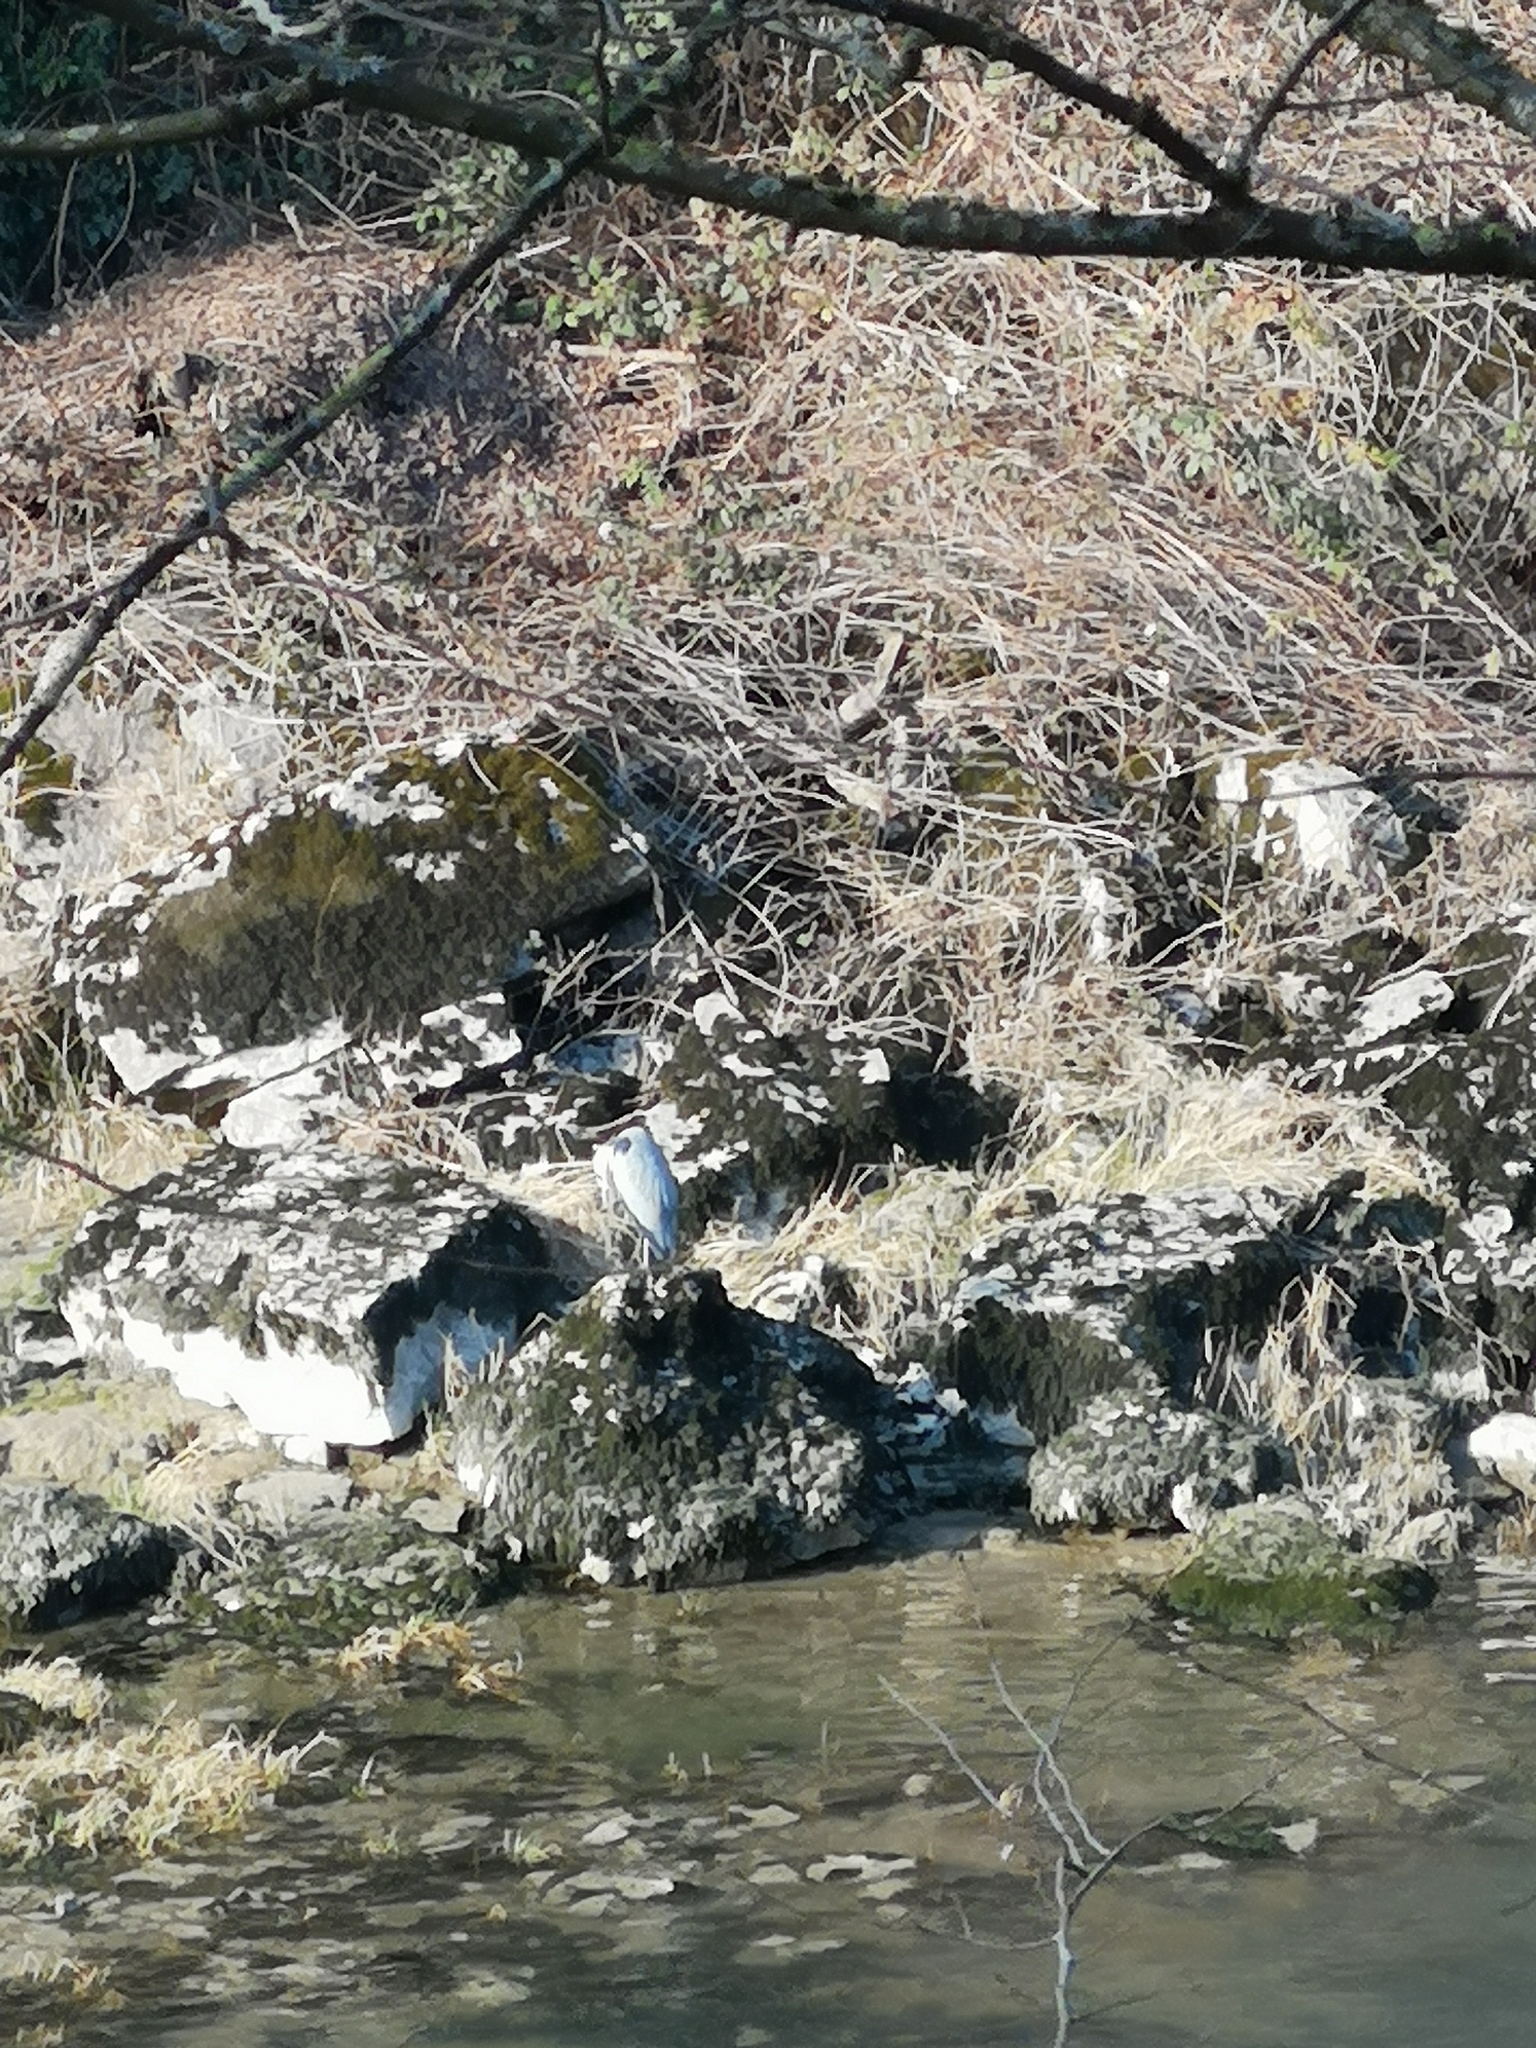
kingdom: Animalia
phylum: Chordata
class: Aves
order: Pelecaniformes
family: Ardeidae
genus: Ardea
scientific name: Ardea cinerea
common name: Grey heron
